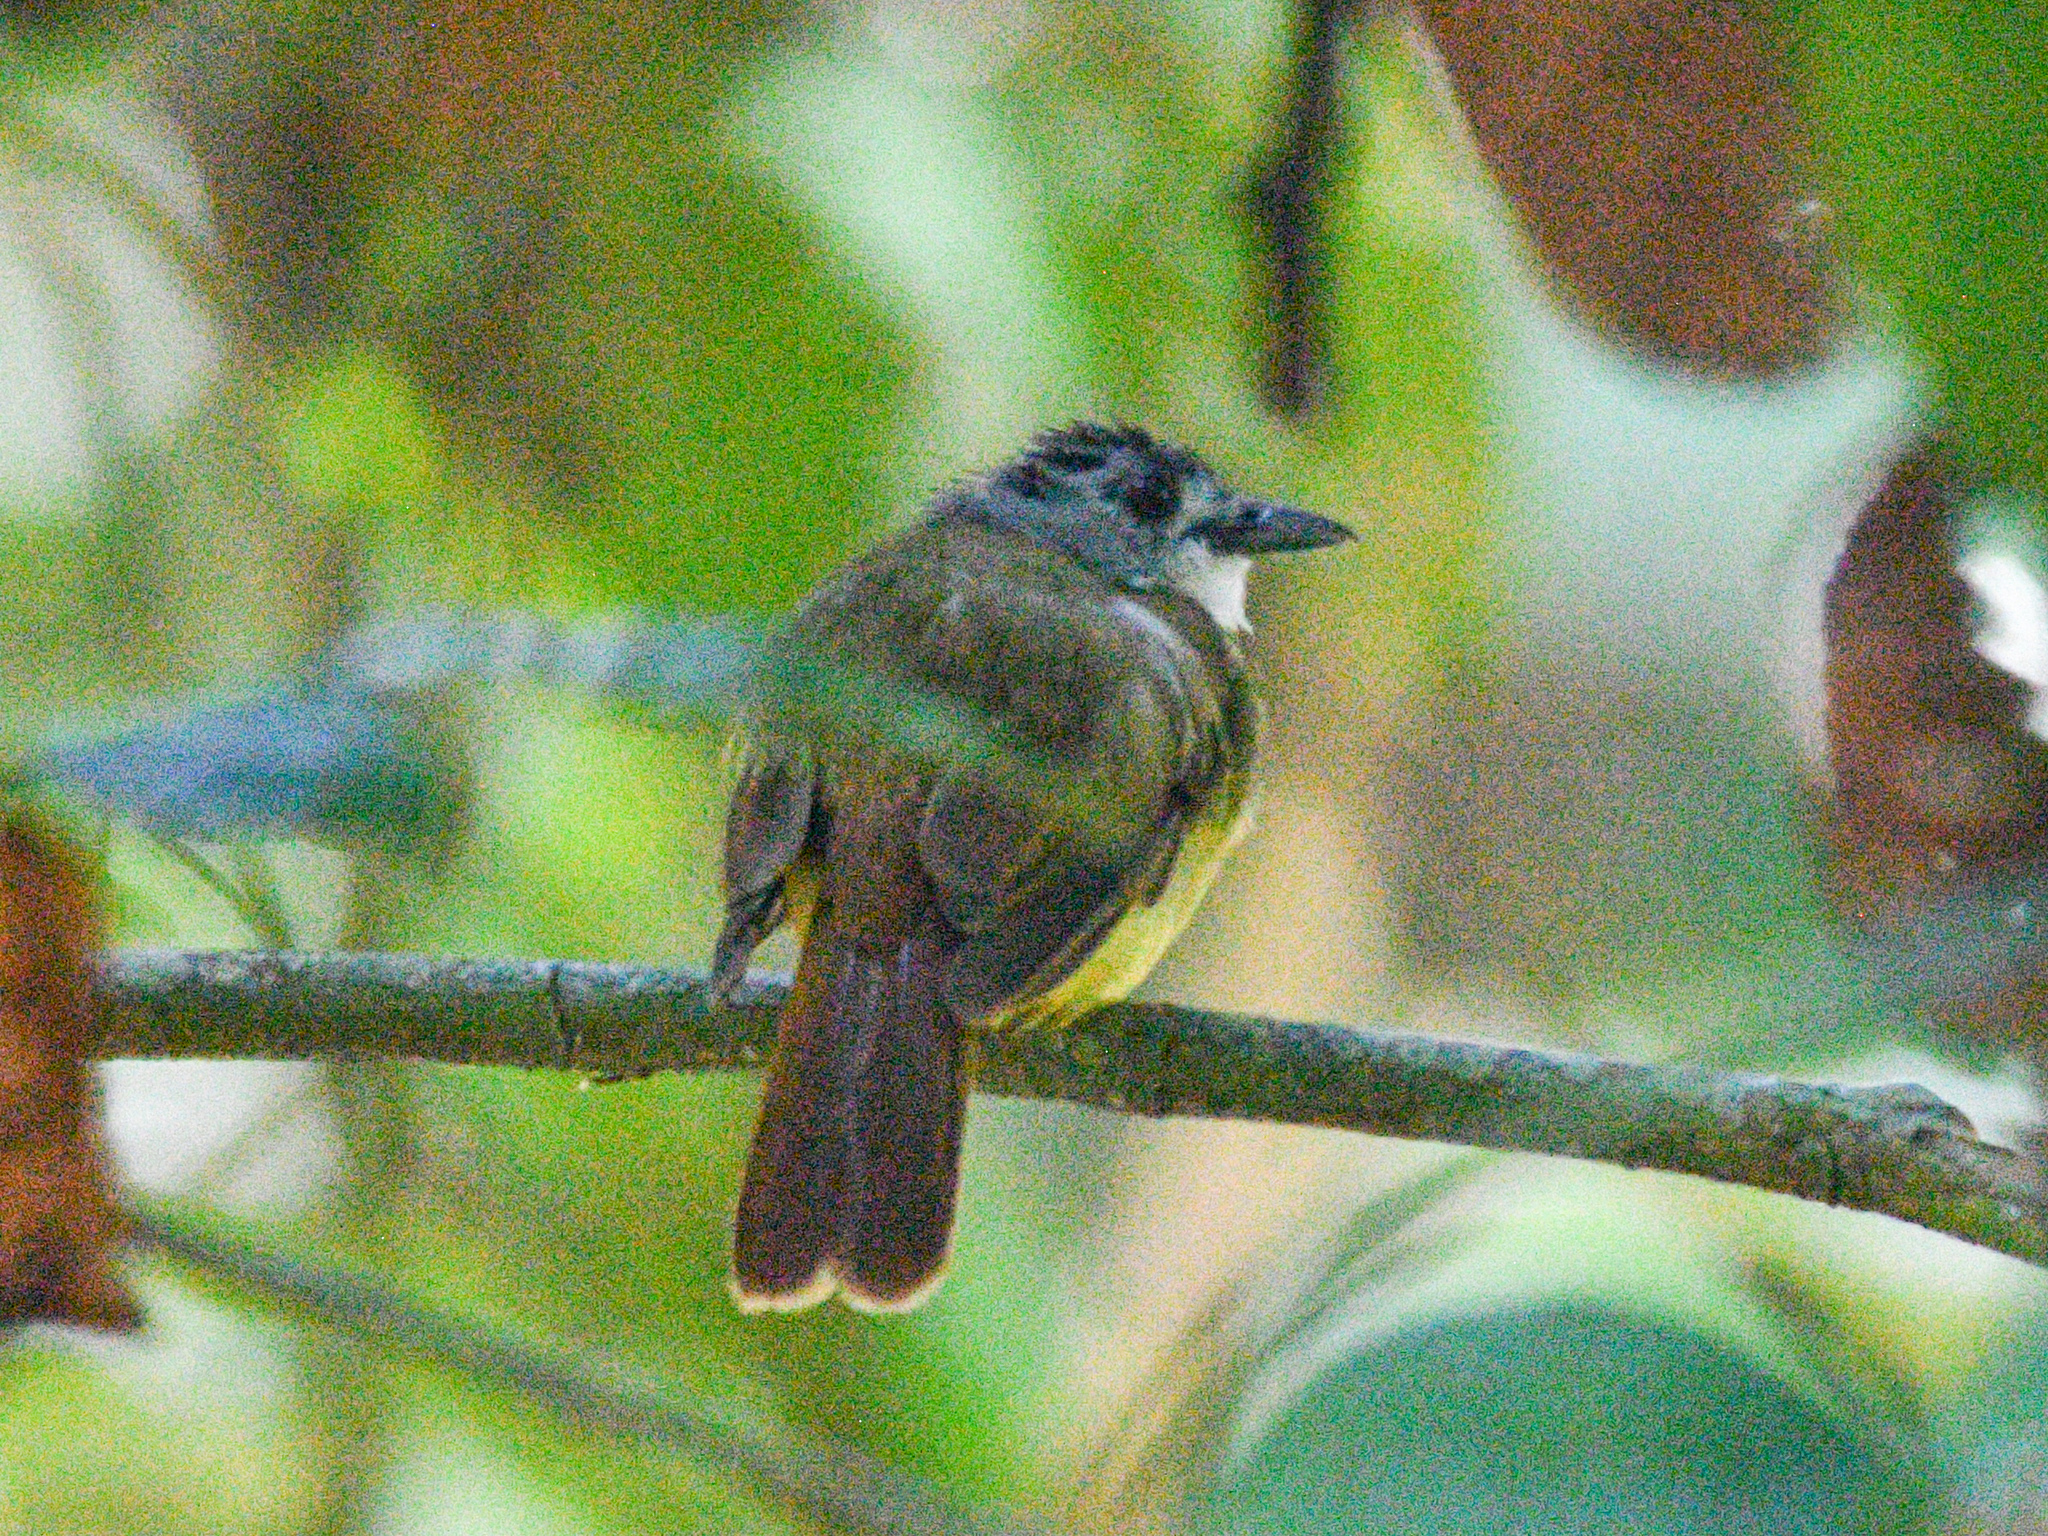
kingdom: Animalia
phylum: Chordata
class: Aves
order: Passeriformes
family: Pycnonotidae
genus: Alophoixus
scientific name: Alophoixus phaeocephalus
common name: Yellow-bellied bulbul
